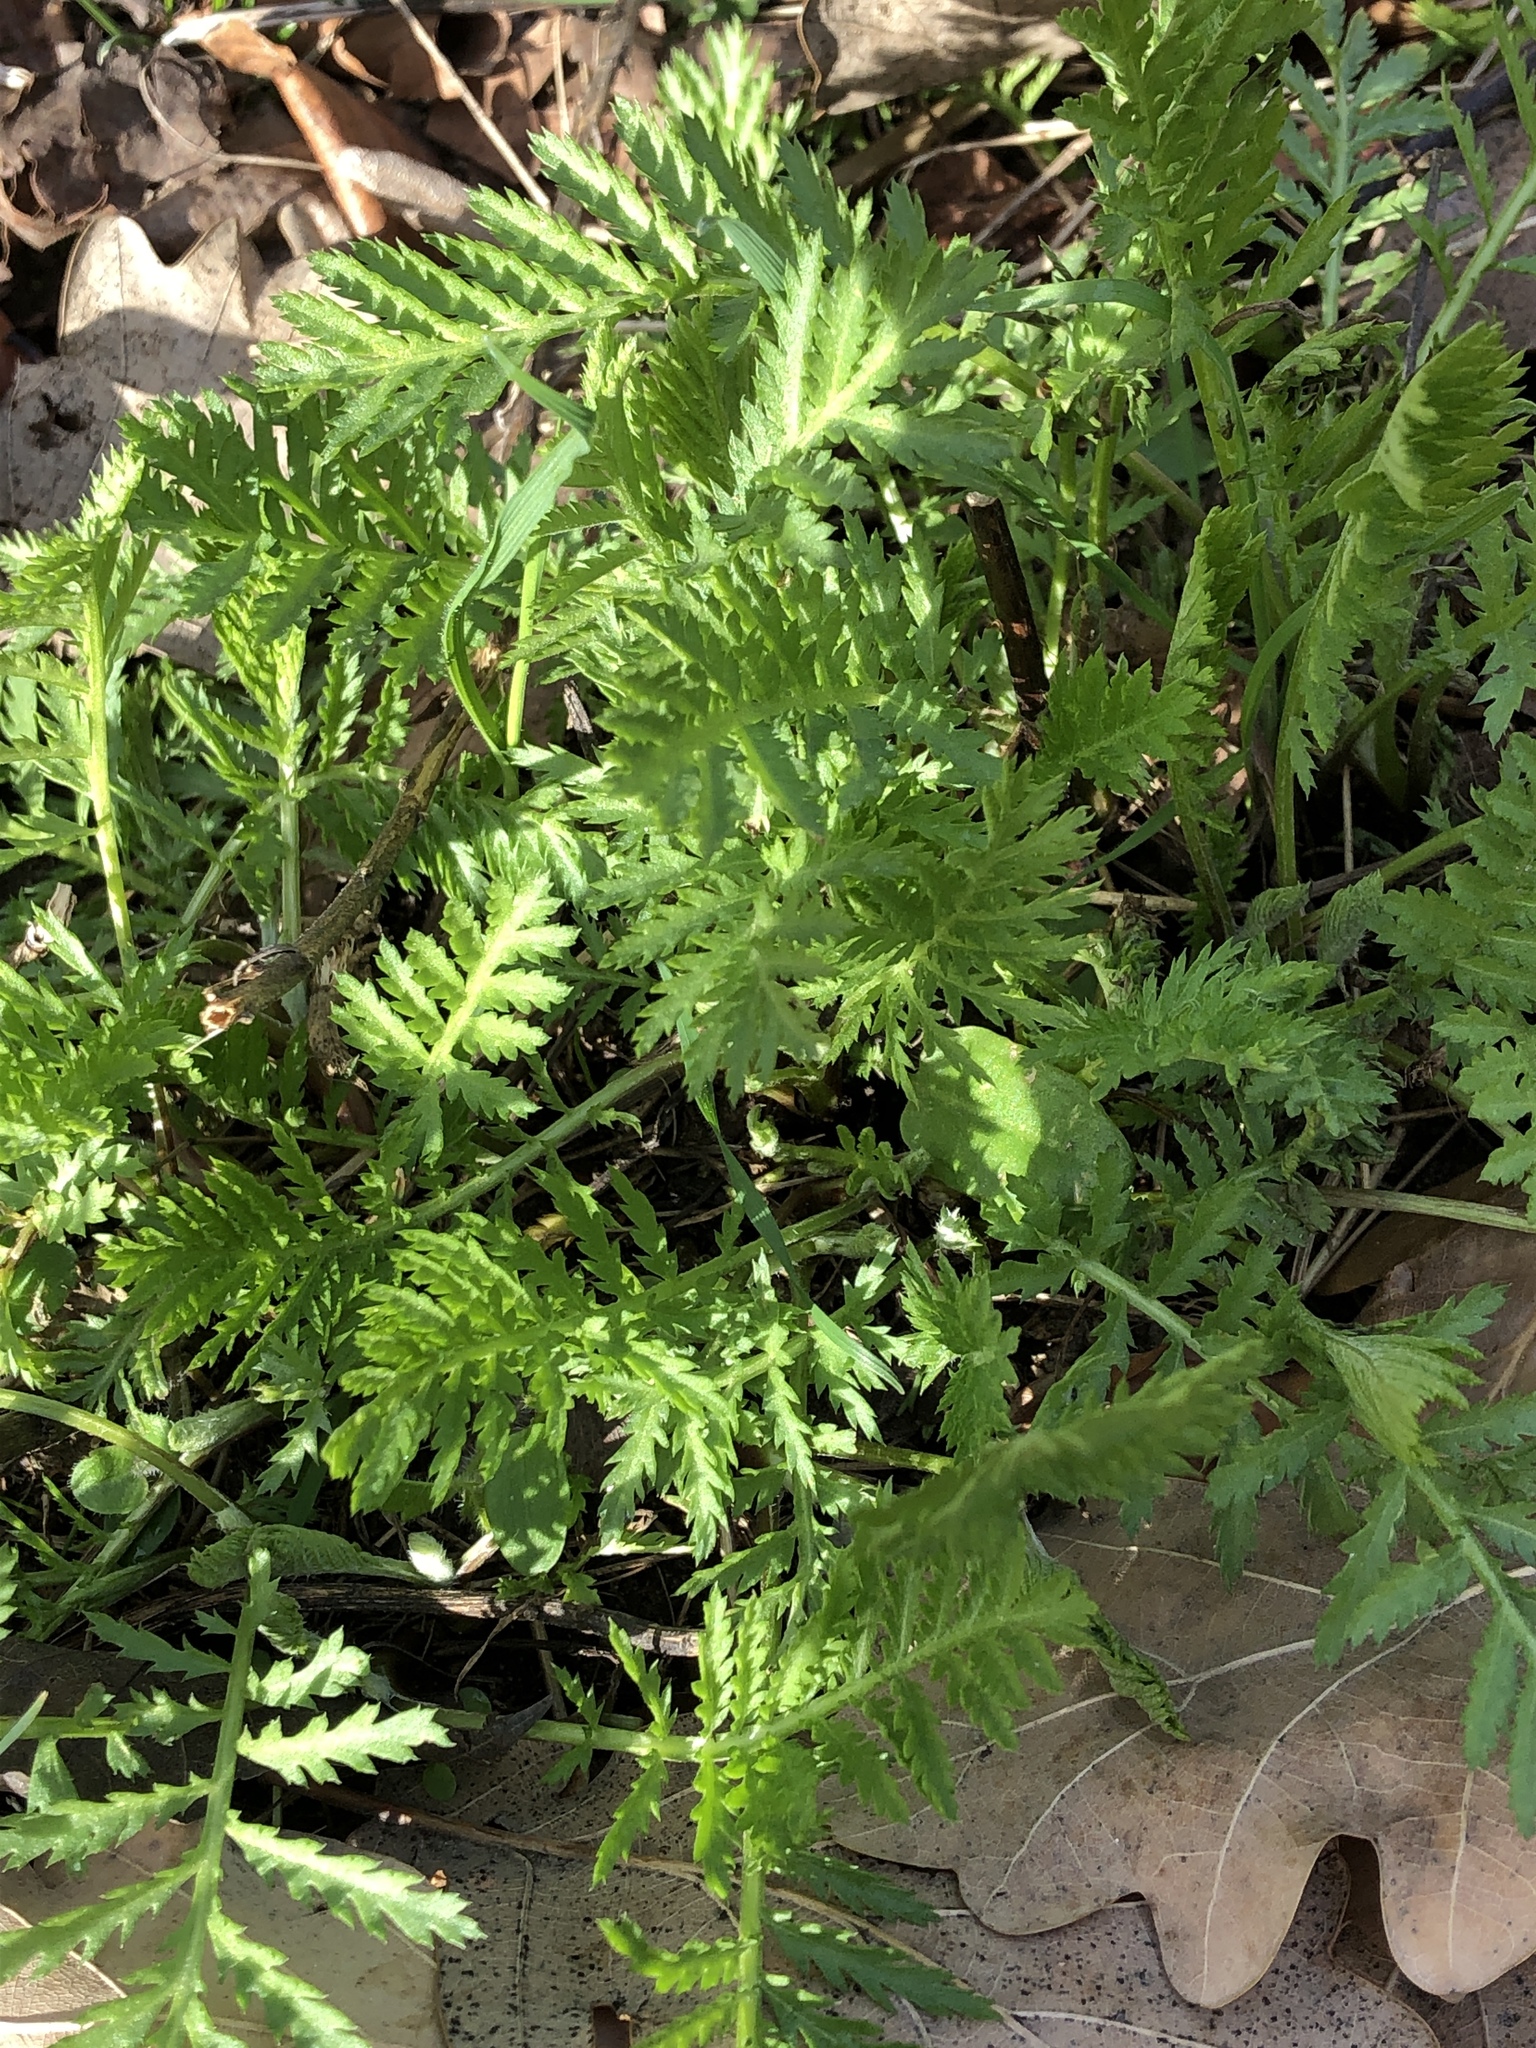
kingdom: Plantae
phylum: Tracheophyta
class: Magnoliopsida
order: Asterales
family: Asteraceae
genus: Tanacetum
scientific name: Tanacetum vulgare
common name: Common tansy
